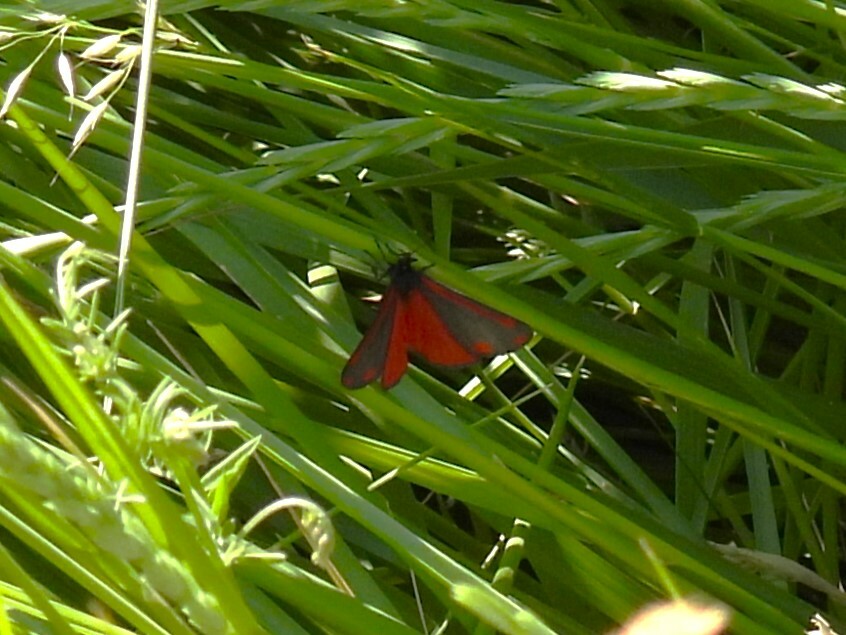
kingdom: Animalia
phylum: Arthropoda
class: Insecta
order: Lepidoptera
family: Erebidae
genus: Tyria
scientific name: Tyria jacobaeae
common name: Cinnabar
